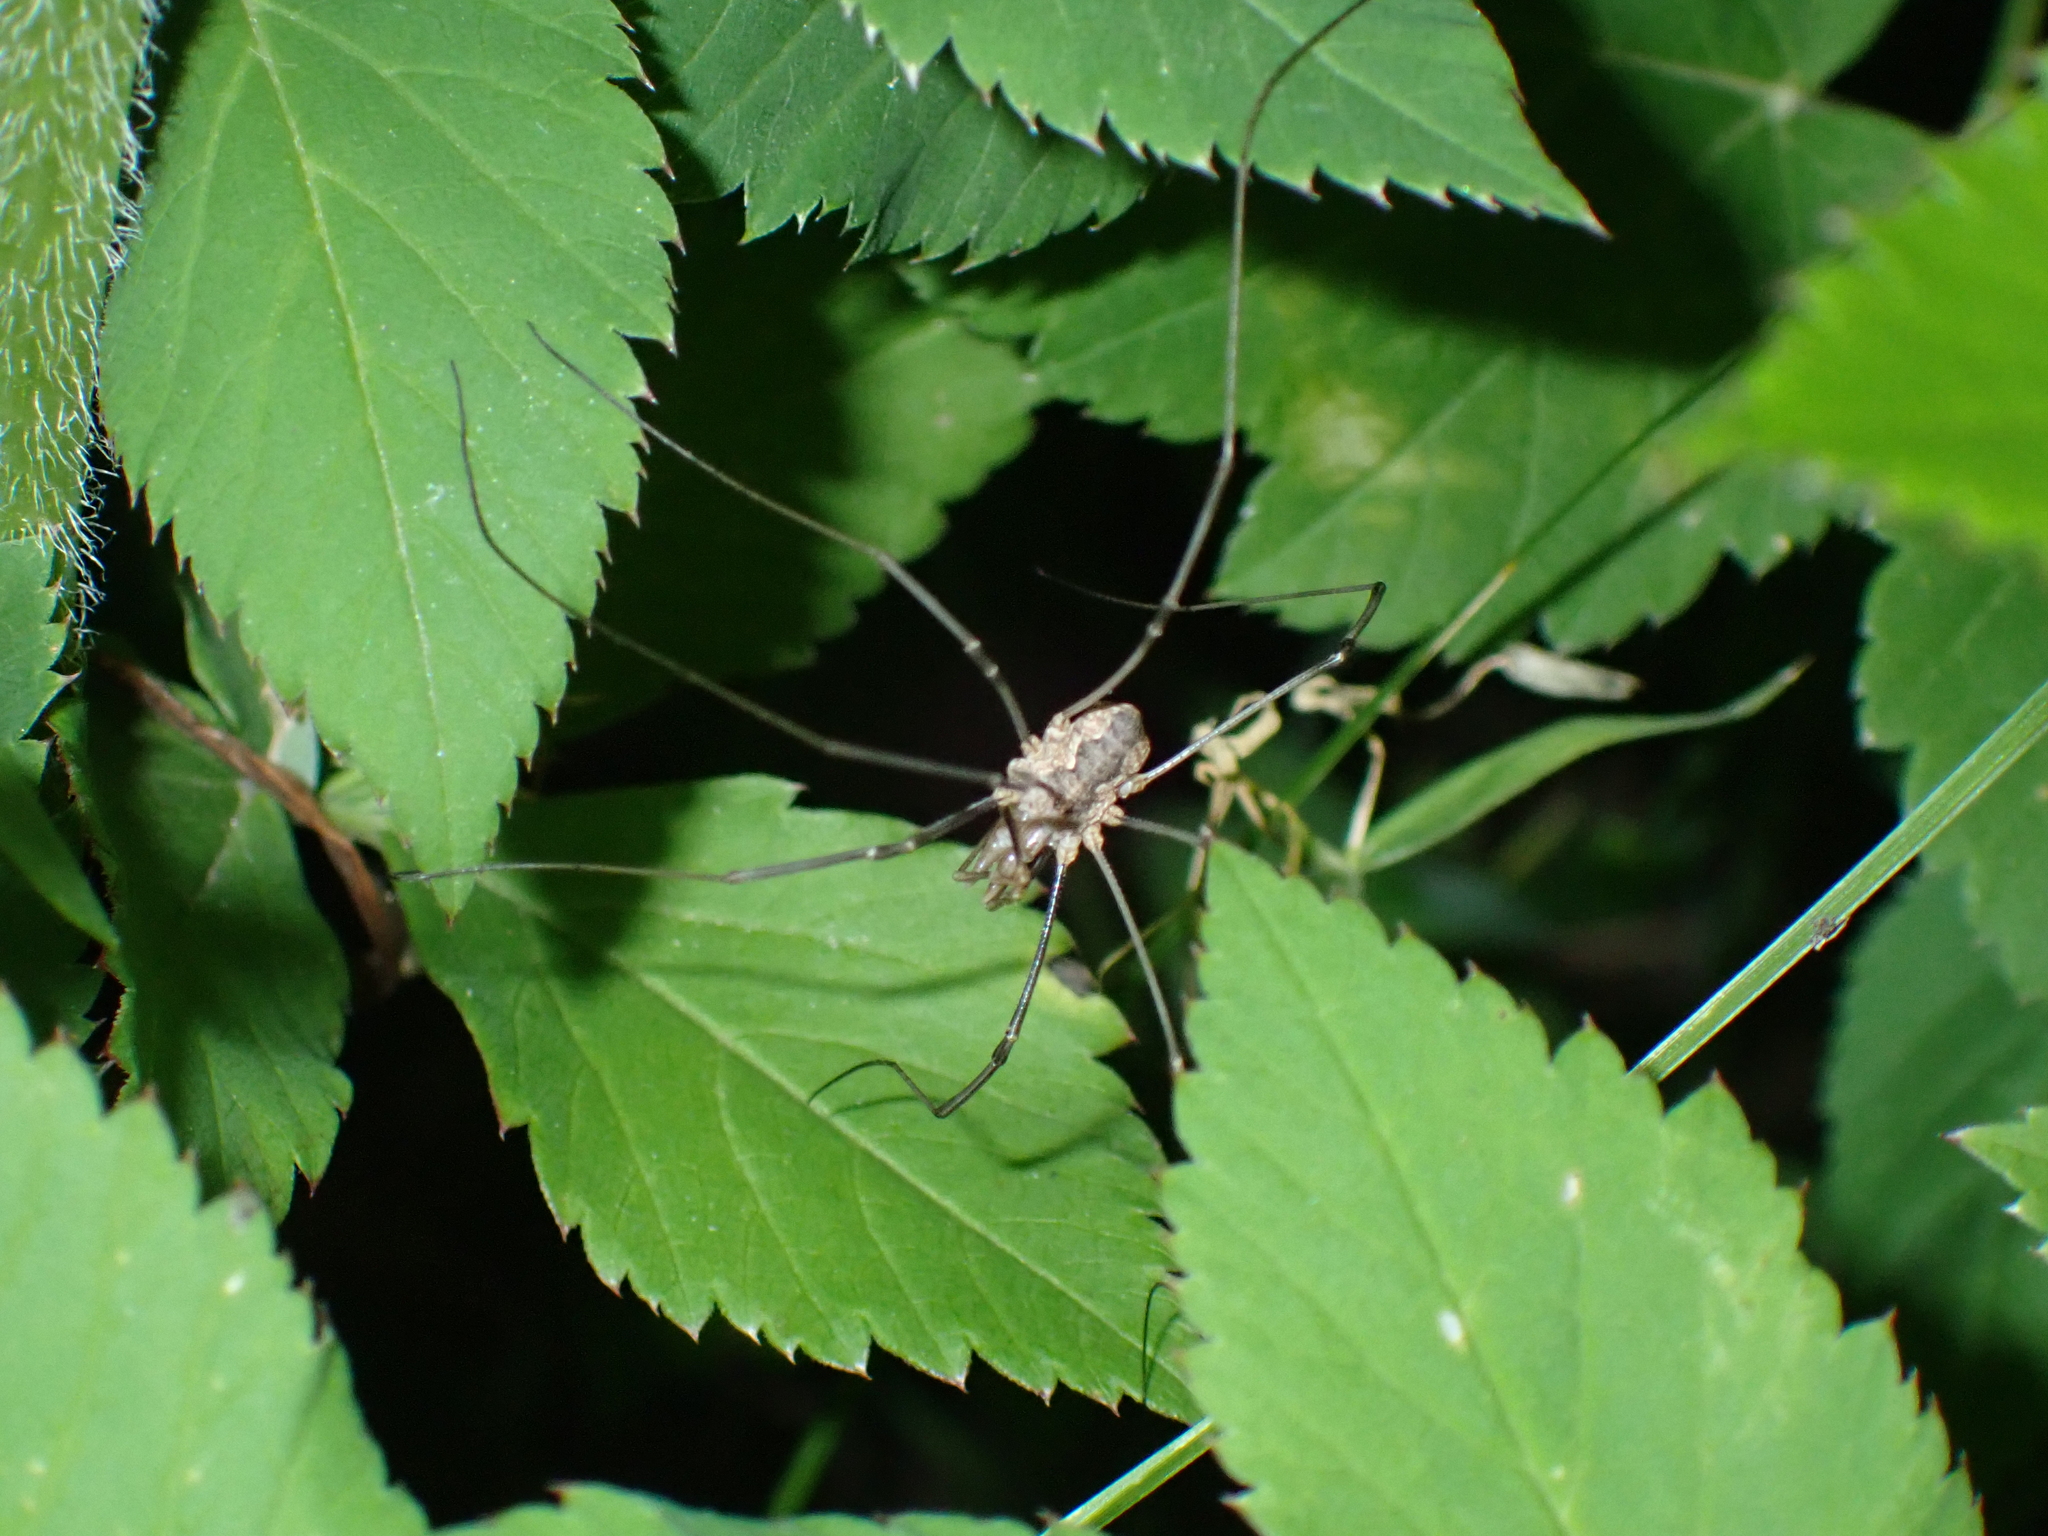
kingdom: Animalia
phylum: Arthropoda
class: Arachnida
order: Opiliones
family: Phalangiidae
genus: Phalangium
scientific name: Phalangium opilio
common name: Daddy longleg
